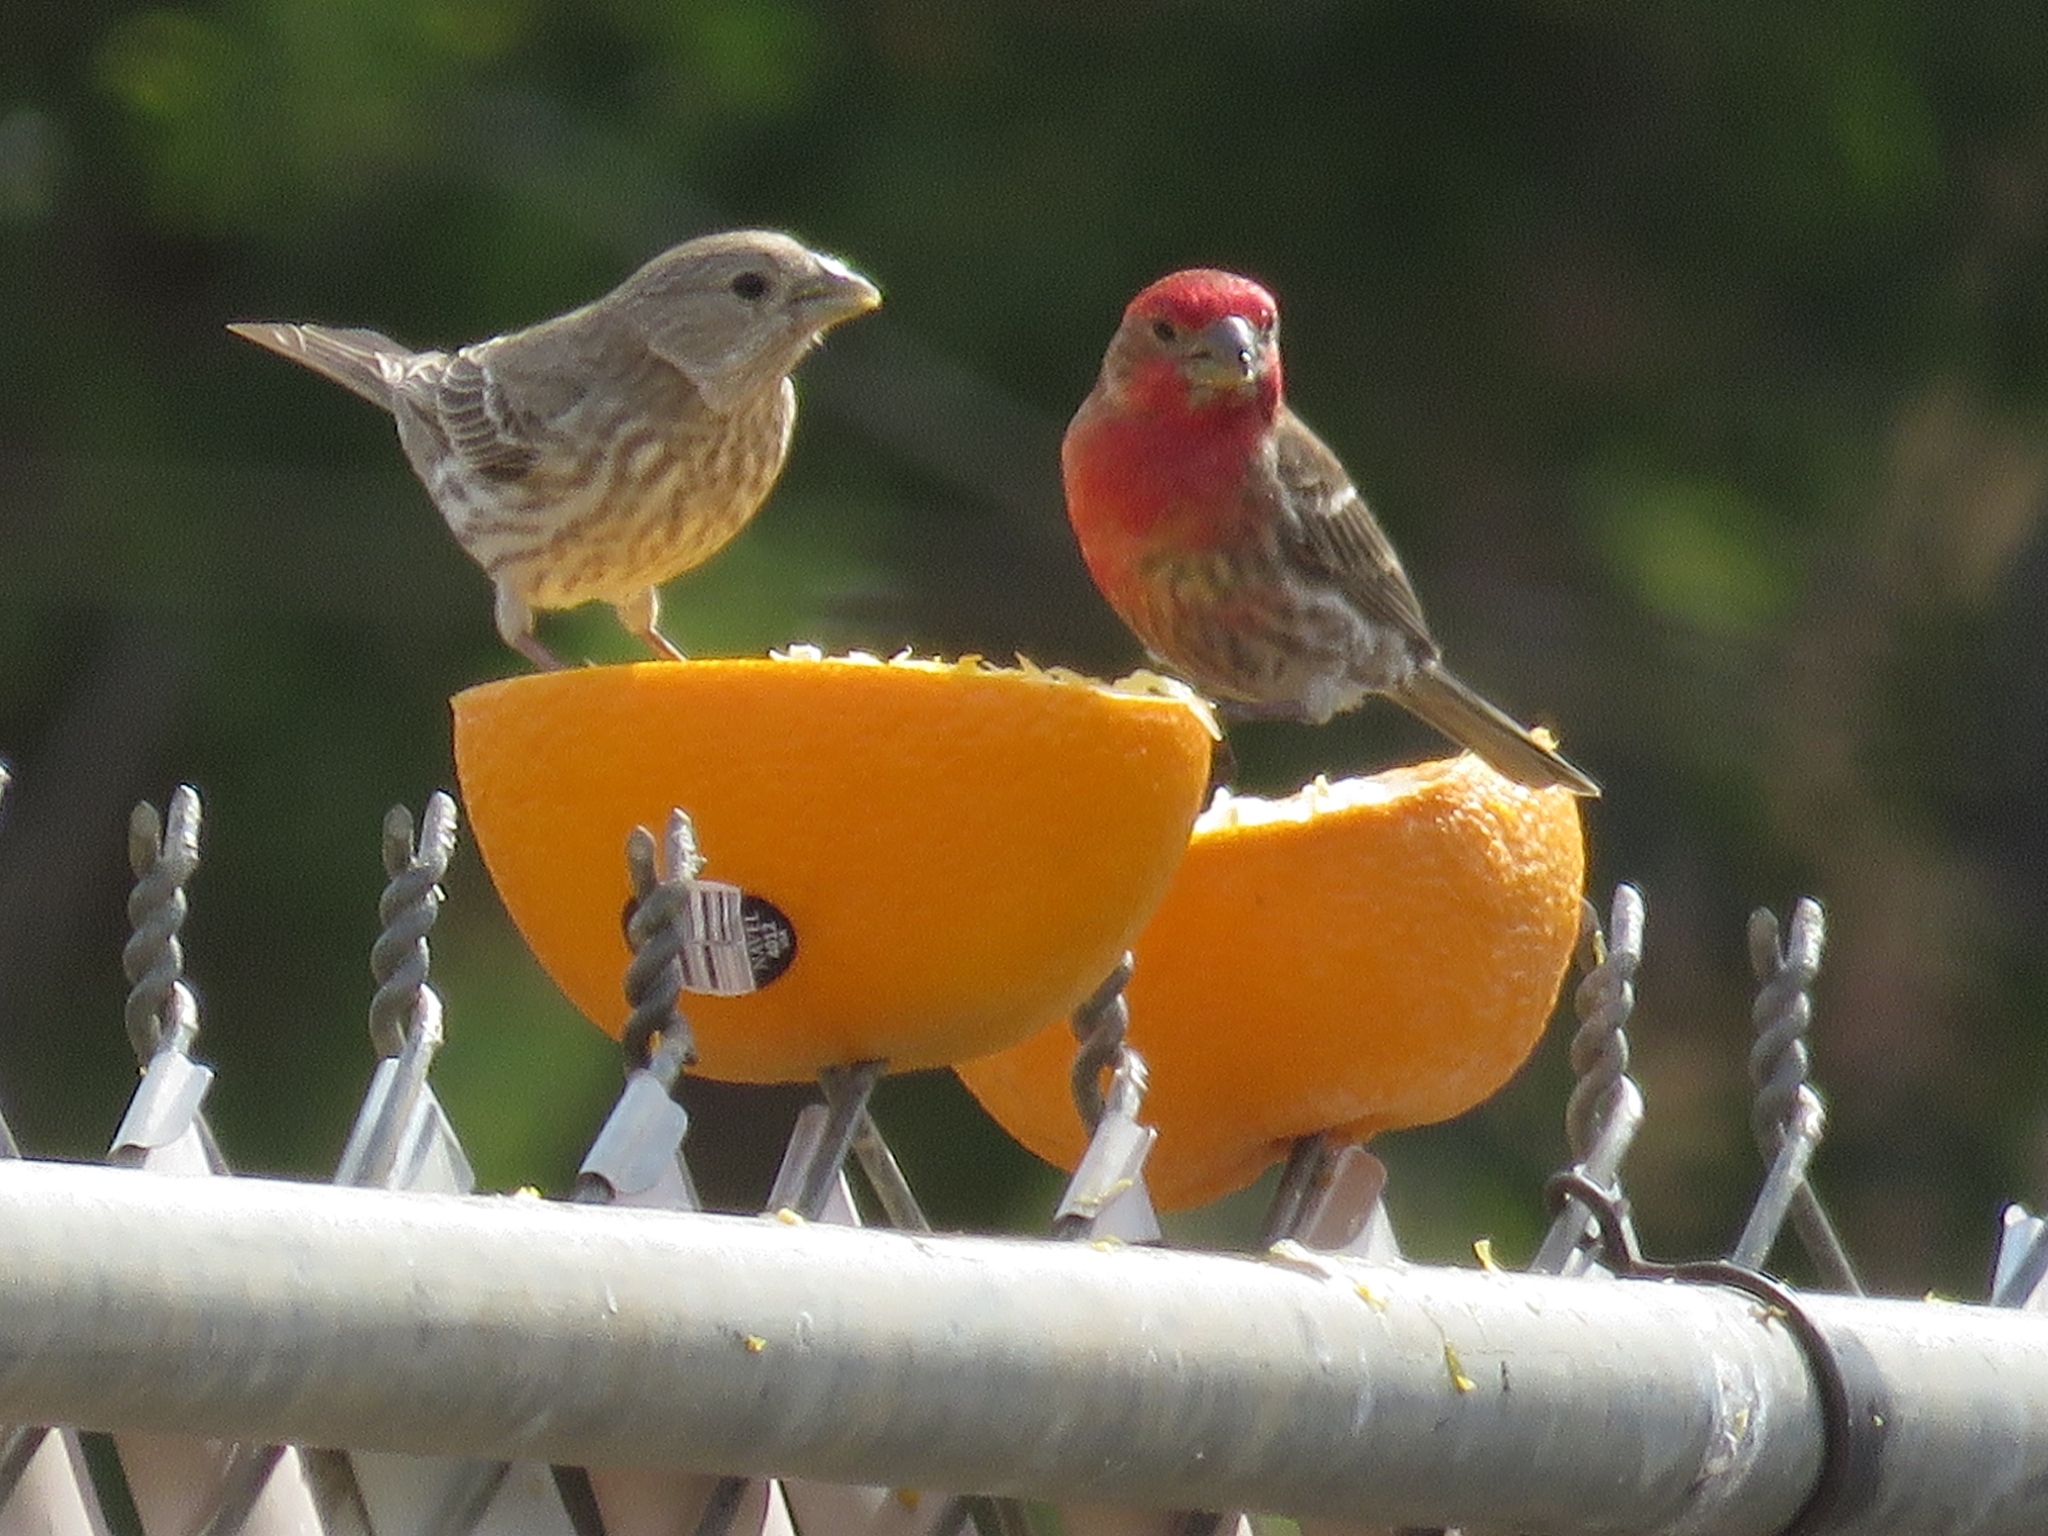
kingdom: Animalia
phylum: Chordata
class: Aves
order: Passeriformes
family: Fringillidae
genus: Haemorhous
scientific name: Haemorhous mexicanus
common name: House finch
